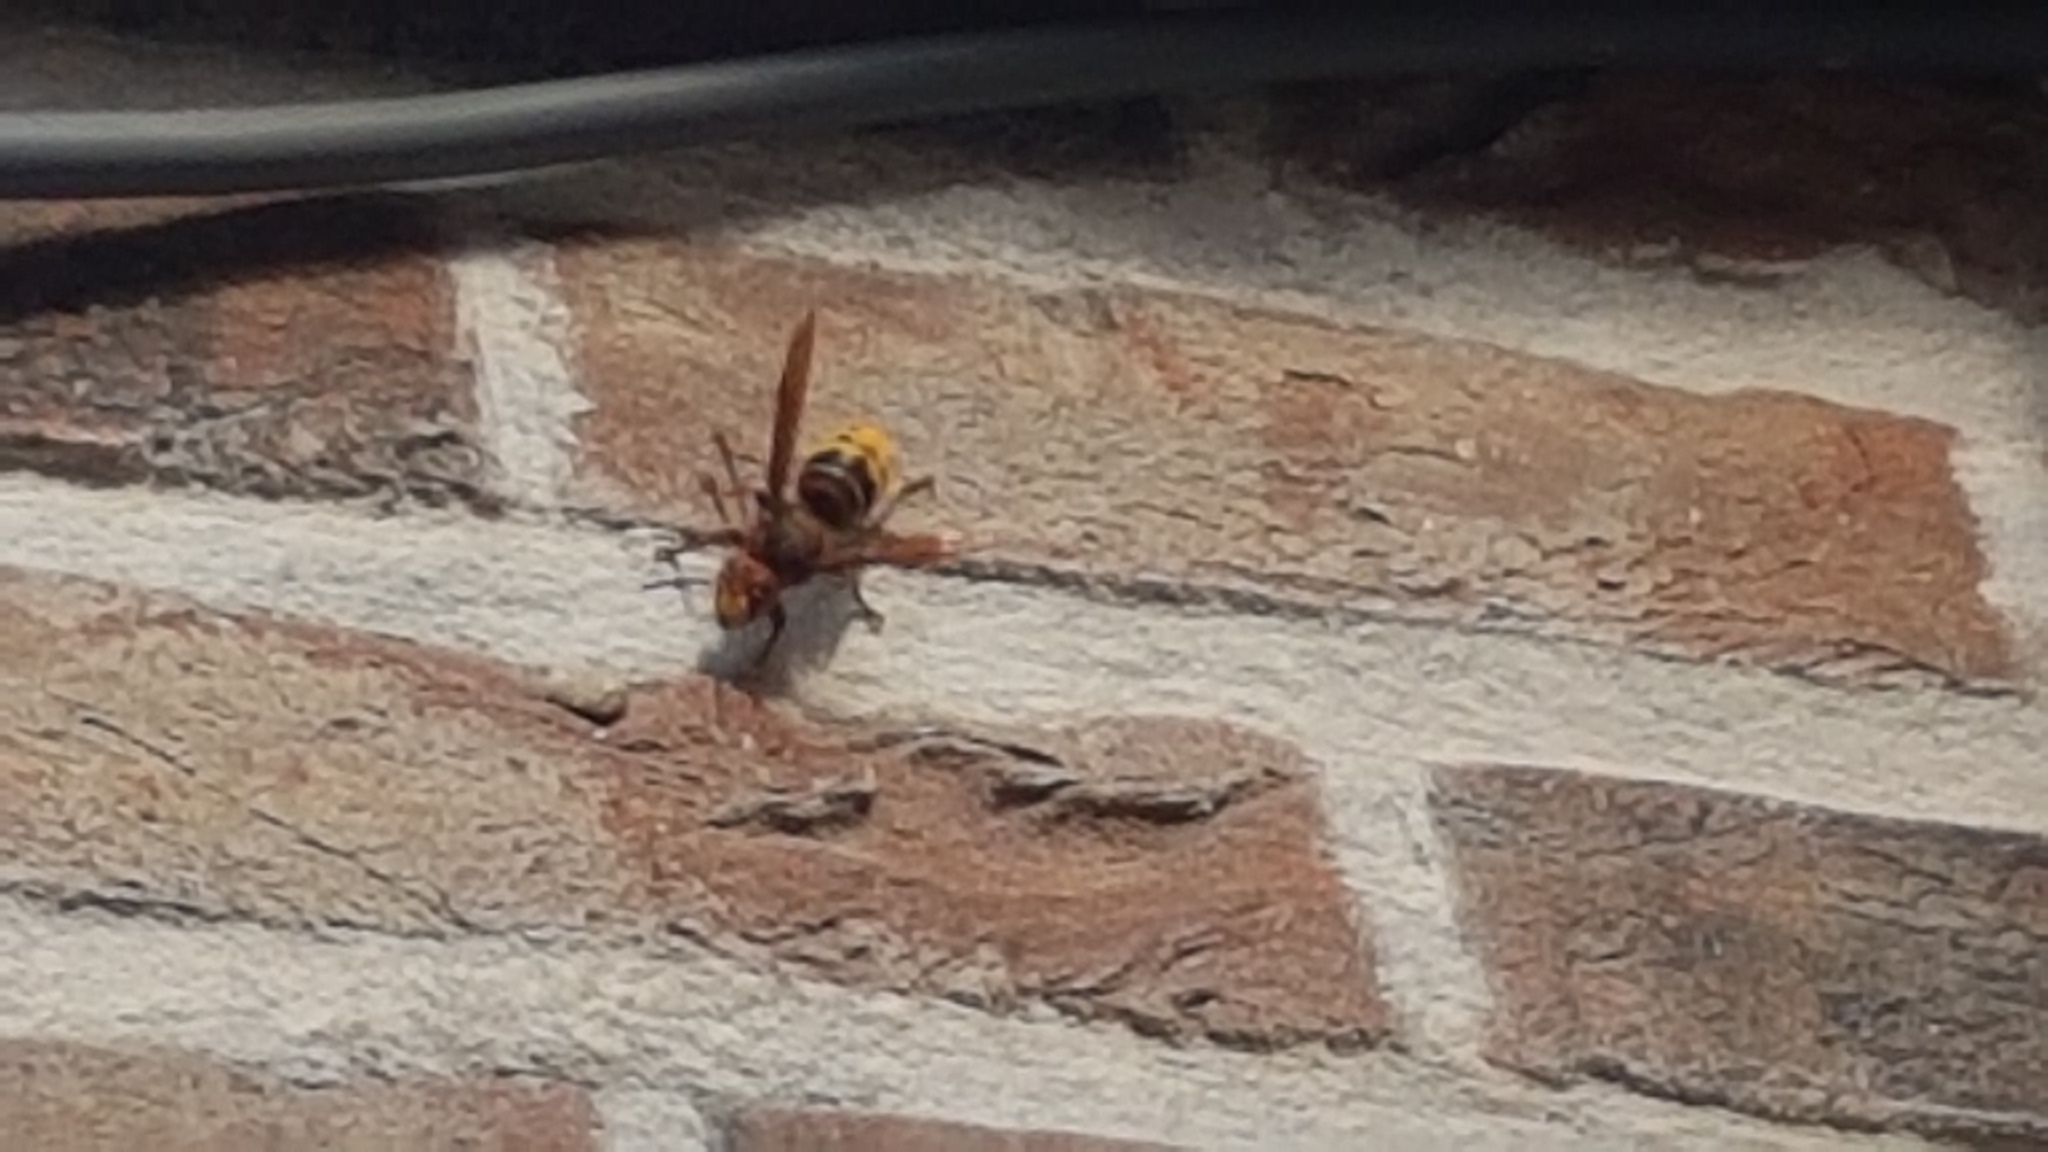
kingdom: Animalia
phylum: Arthropoda
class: Insecta
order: Hymenoptera
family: Vespidae
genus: Vespa
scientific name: Vespa crabro
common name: Hornet
